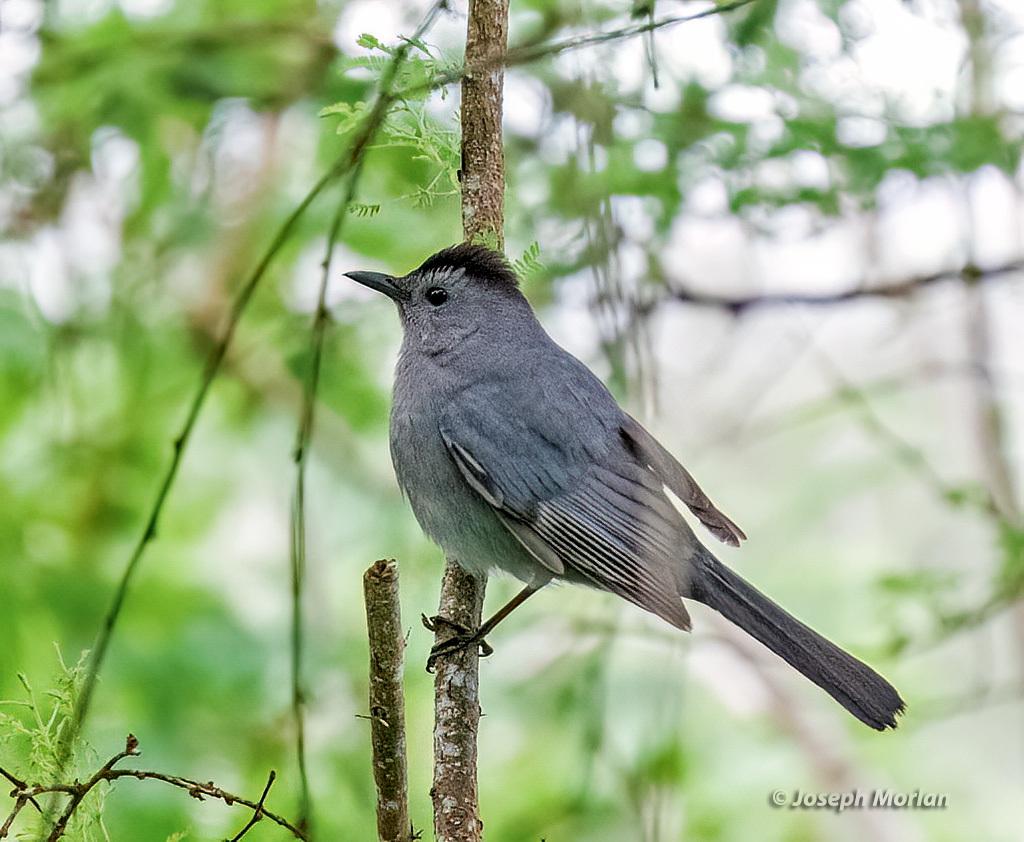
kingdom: Animalia
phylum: Chordata
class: Aves
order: Passeriformes
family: Mimidae
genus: Dumetella
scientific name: Dumetella carolinensis
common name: Gray catbird
